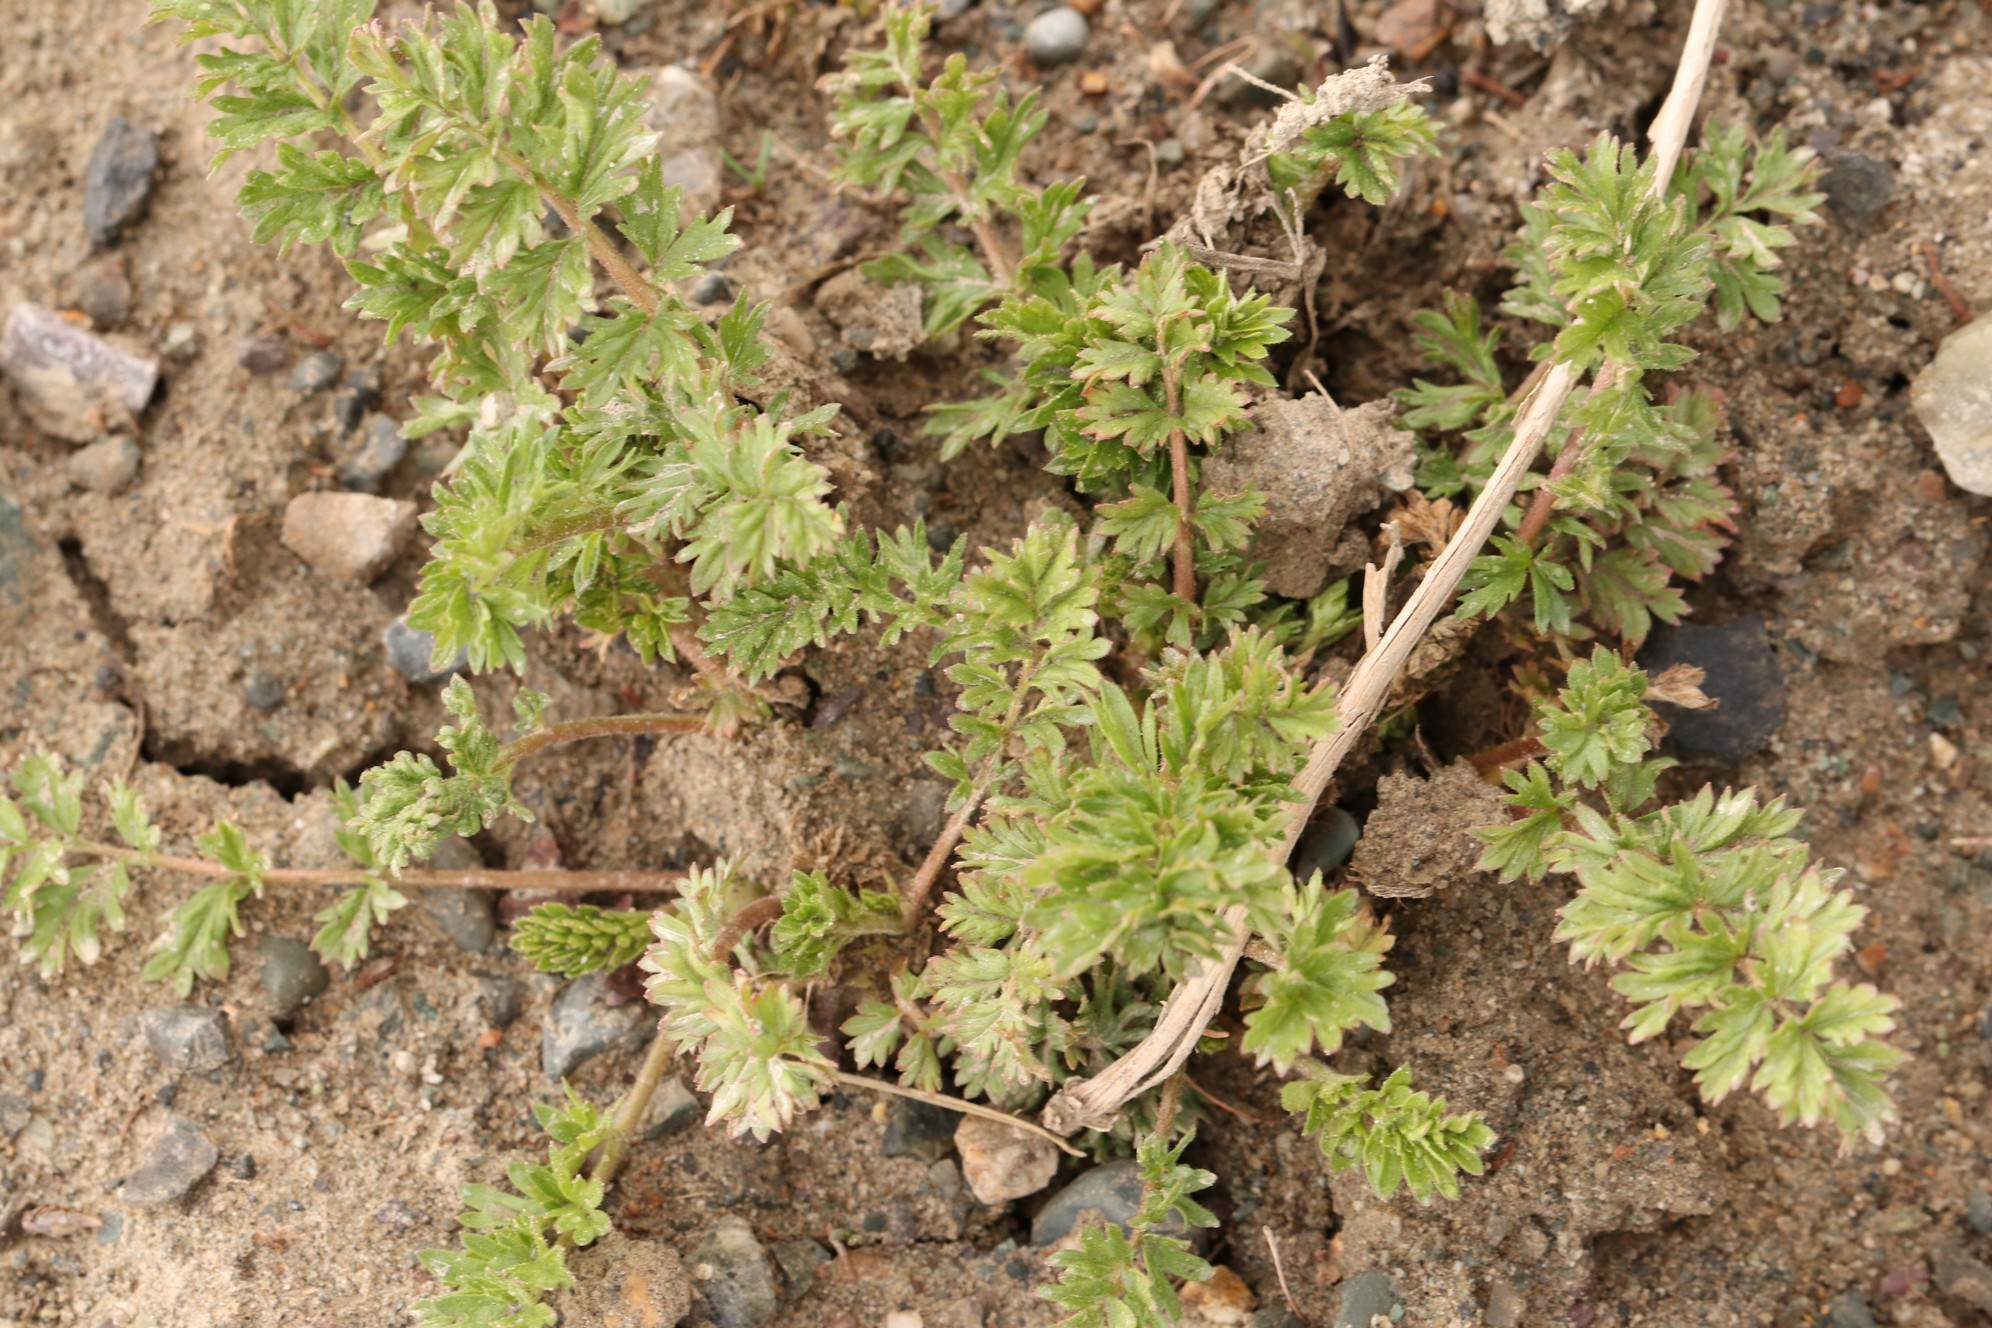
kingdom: Plantae
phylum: Tracheophyta
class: Magnoliopsida
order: Rosales
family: Rosaceae
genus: Potentilla
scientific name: Potentilla supina
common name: Prostrate cinquefoil
